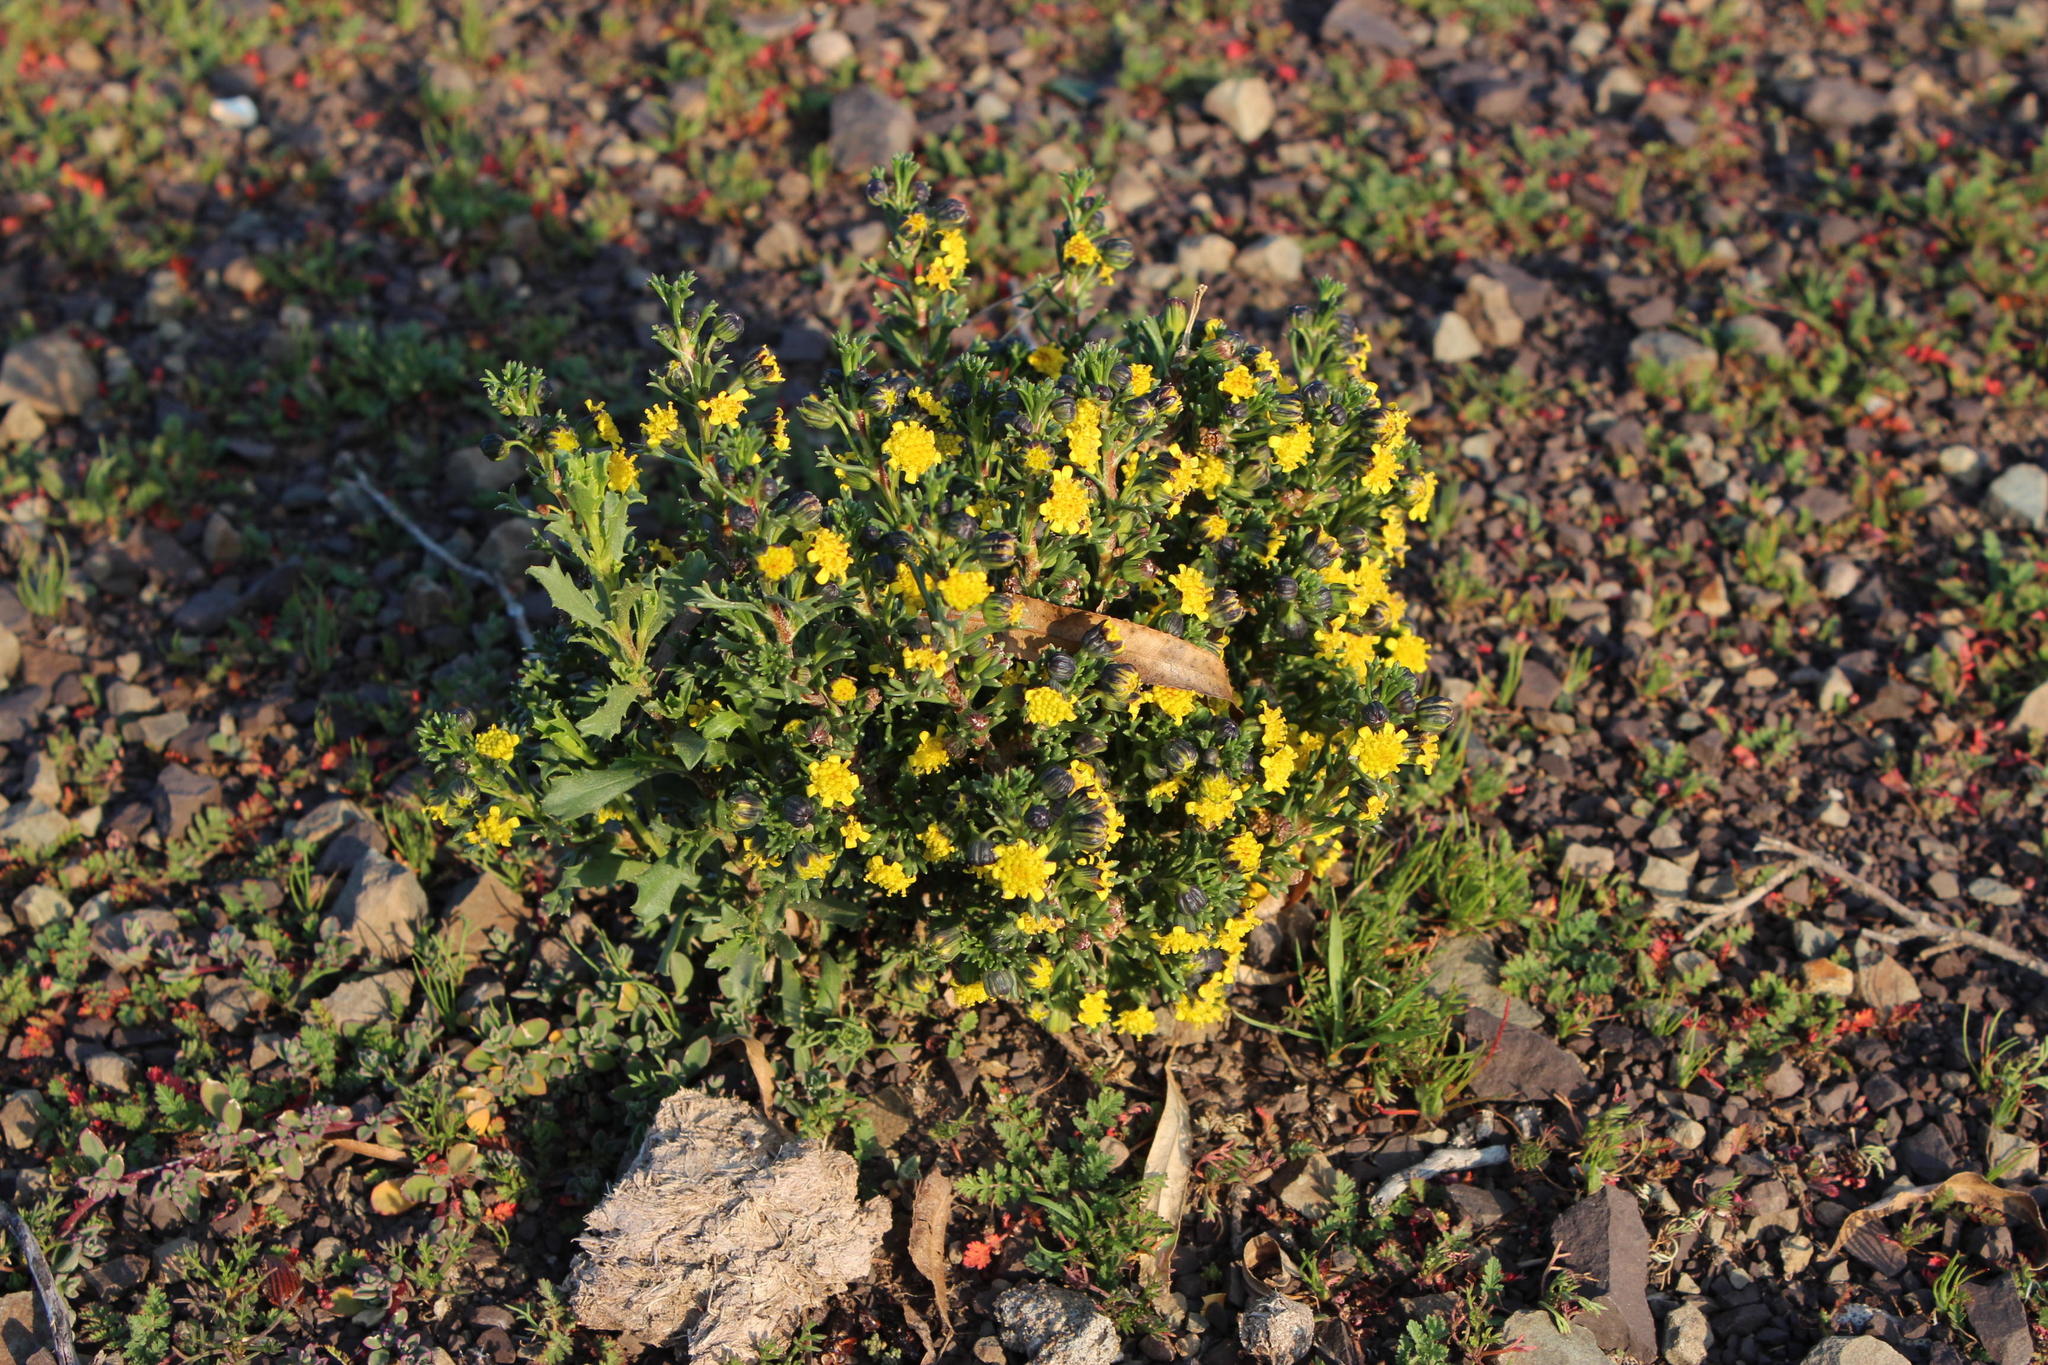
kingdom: Plantae
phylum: Tracheophyta
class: Magnoliopsida
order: Asterales
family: Asteraceae
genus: Euryops
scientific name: Euryops subcarnosus
